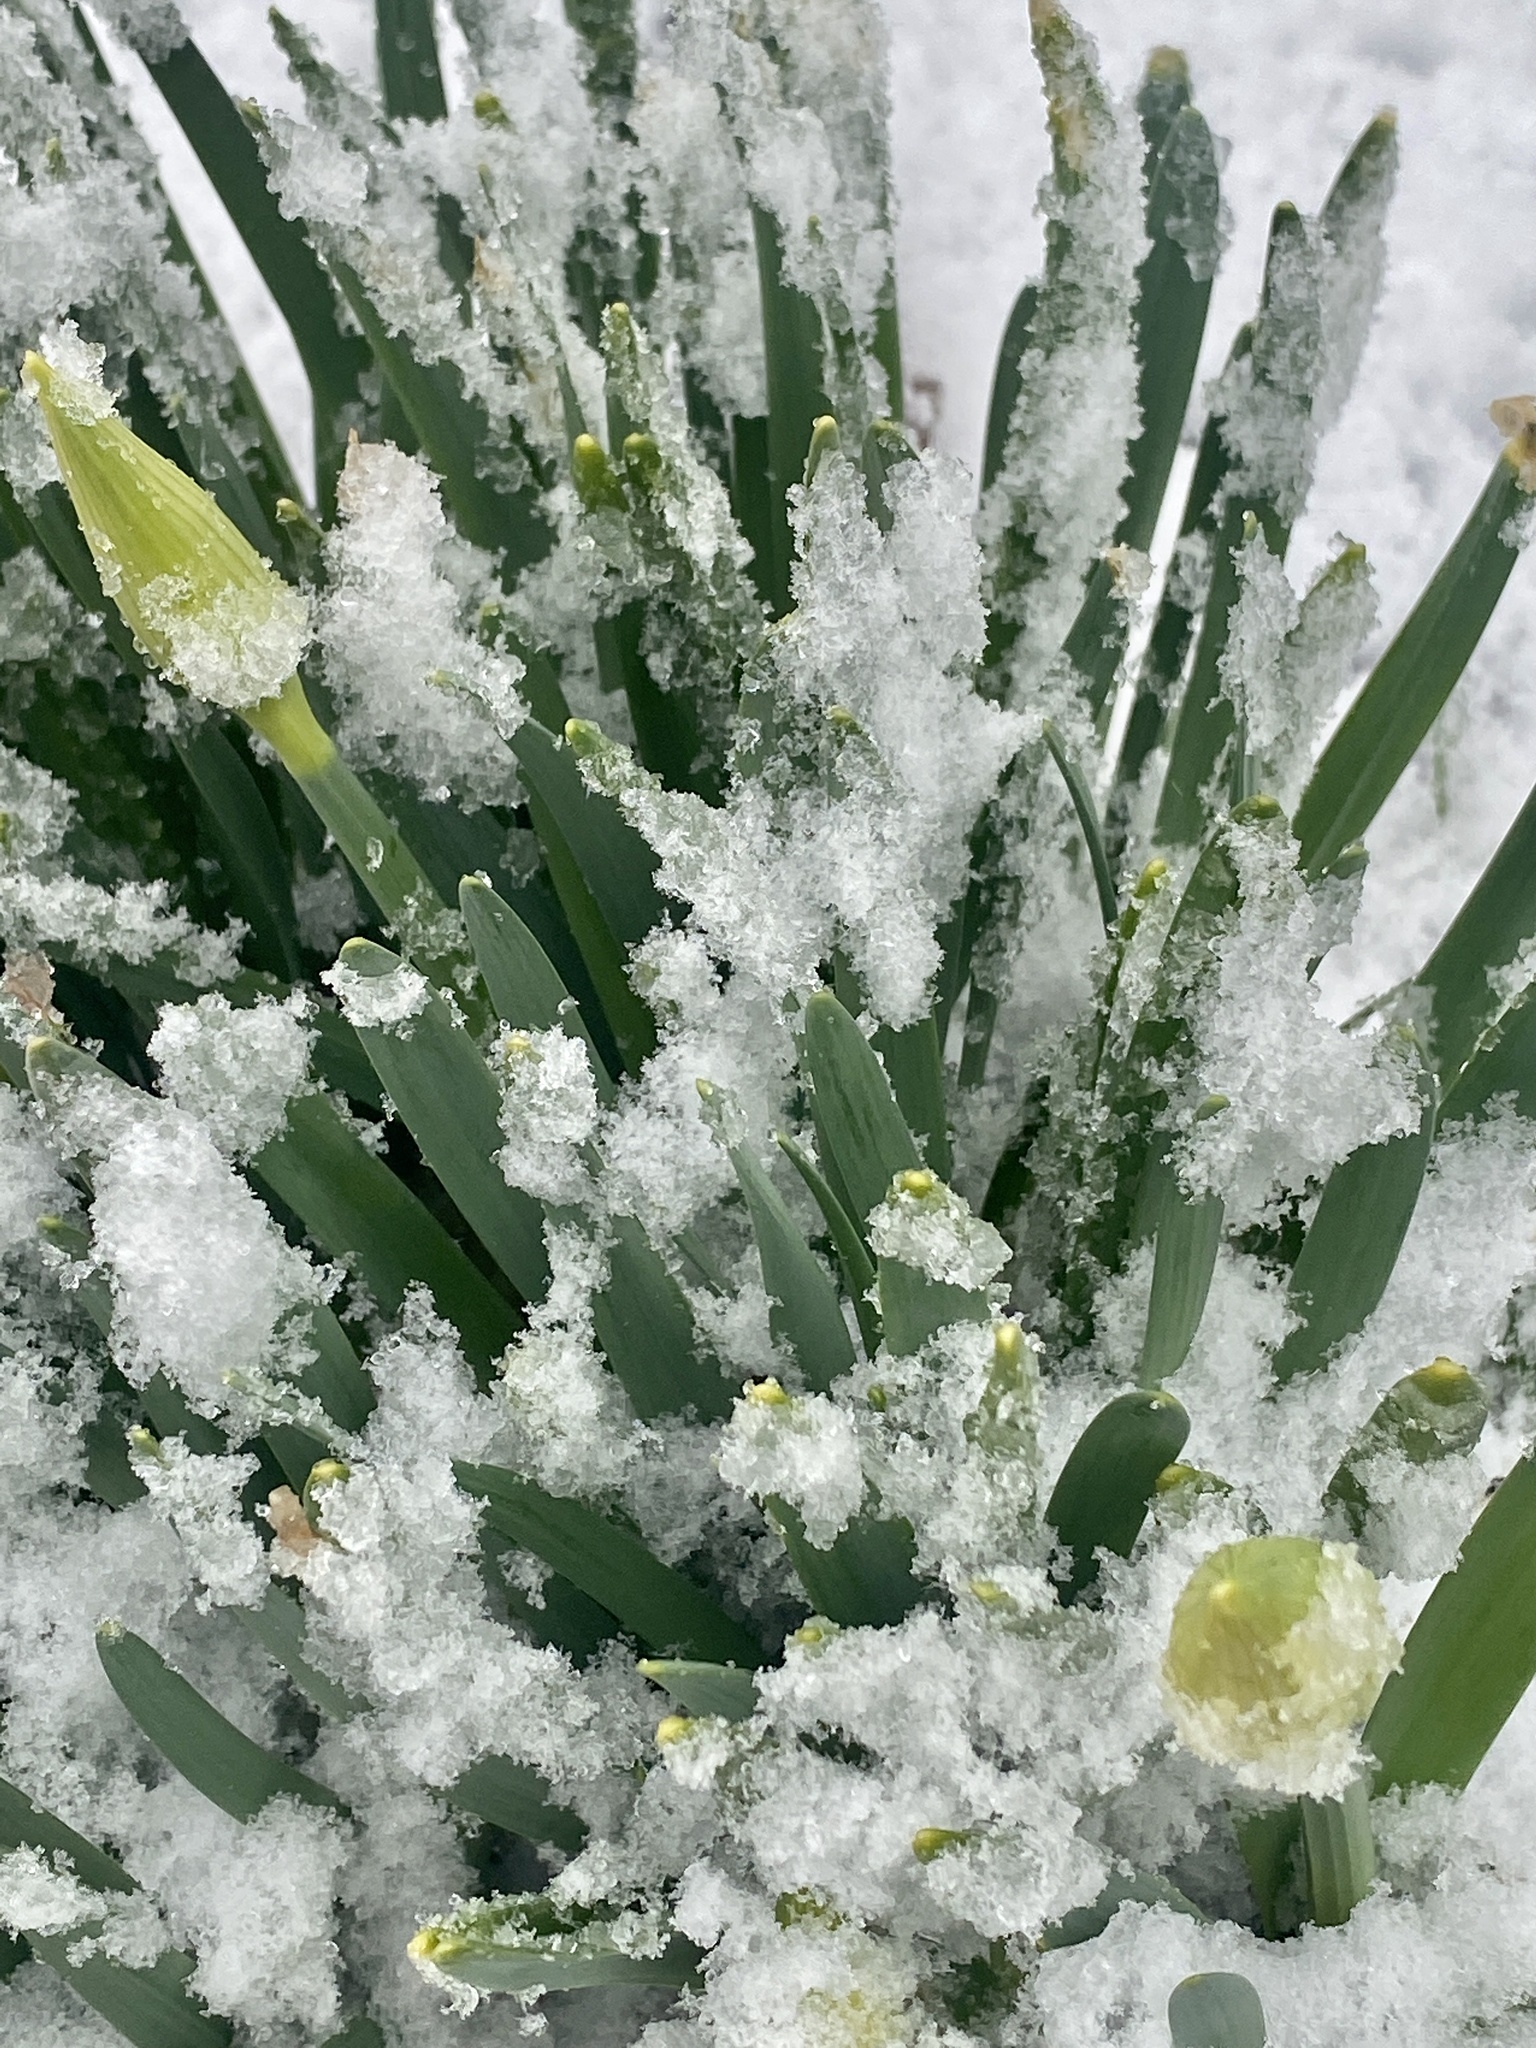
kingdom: Plantae
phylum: Tracheophyta
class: Liliopsida
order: Asparagales
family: Amaryllidaceae
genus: Narcissus
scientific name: Narcissus
